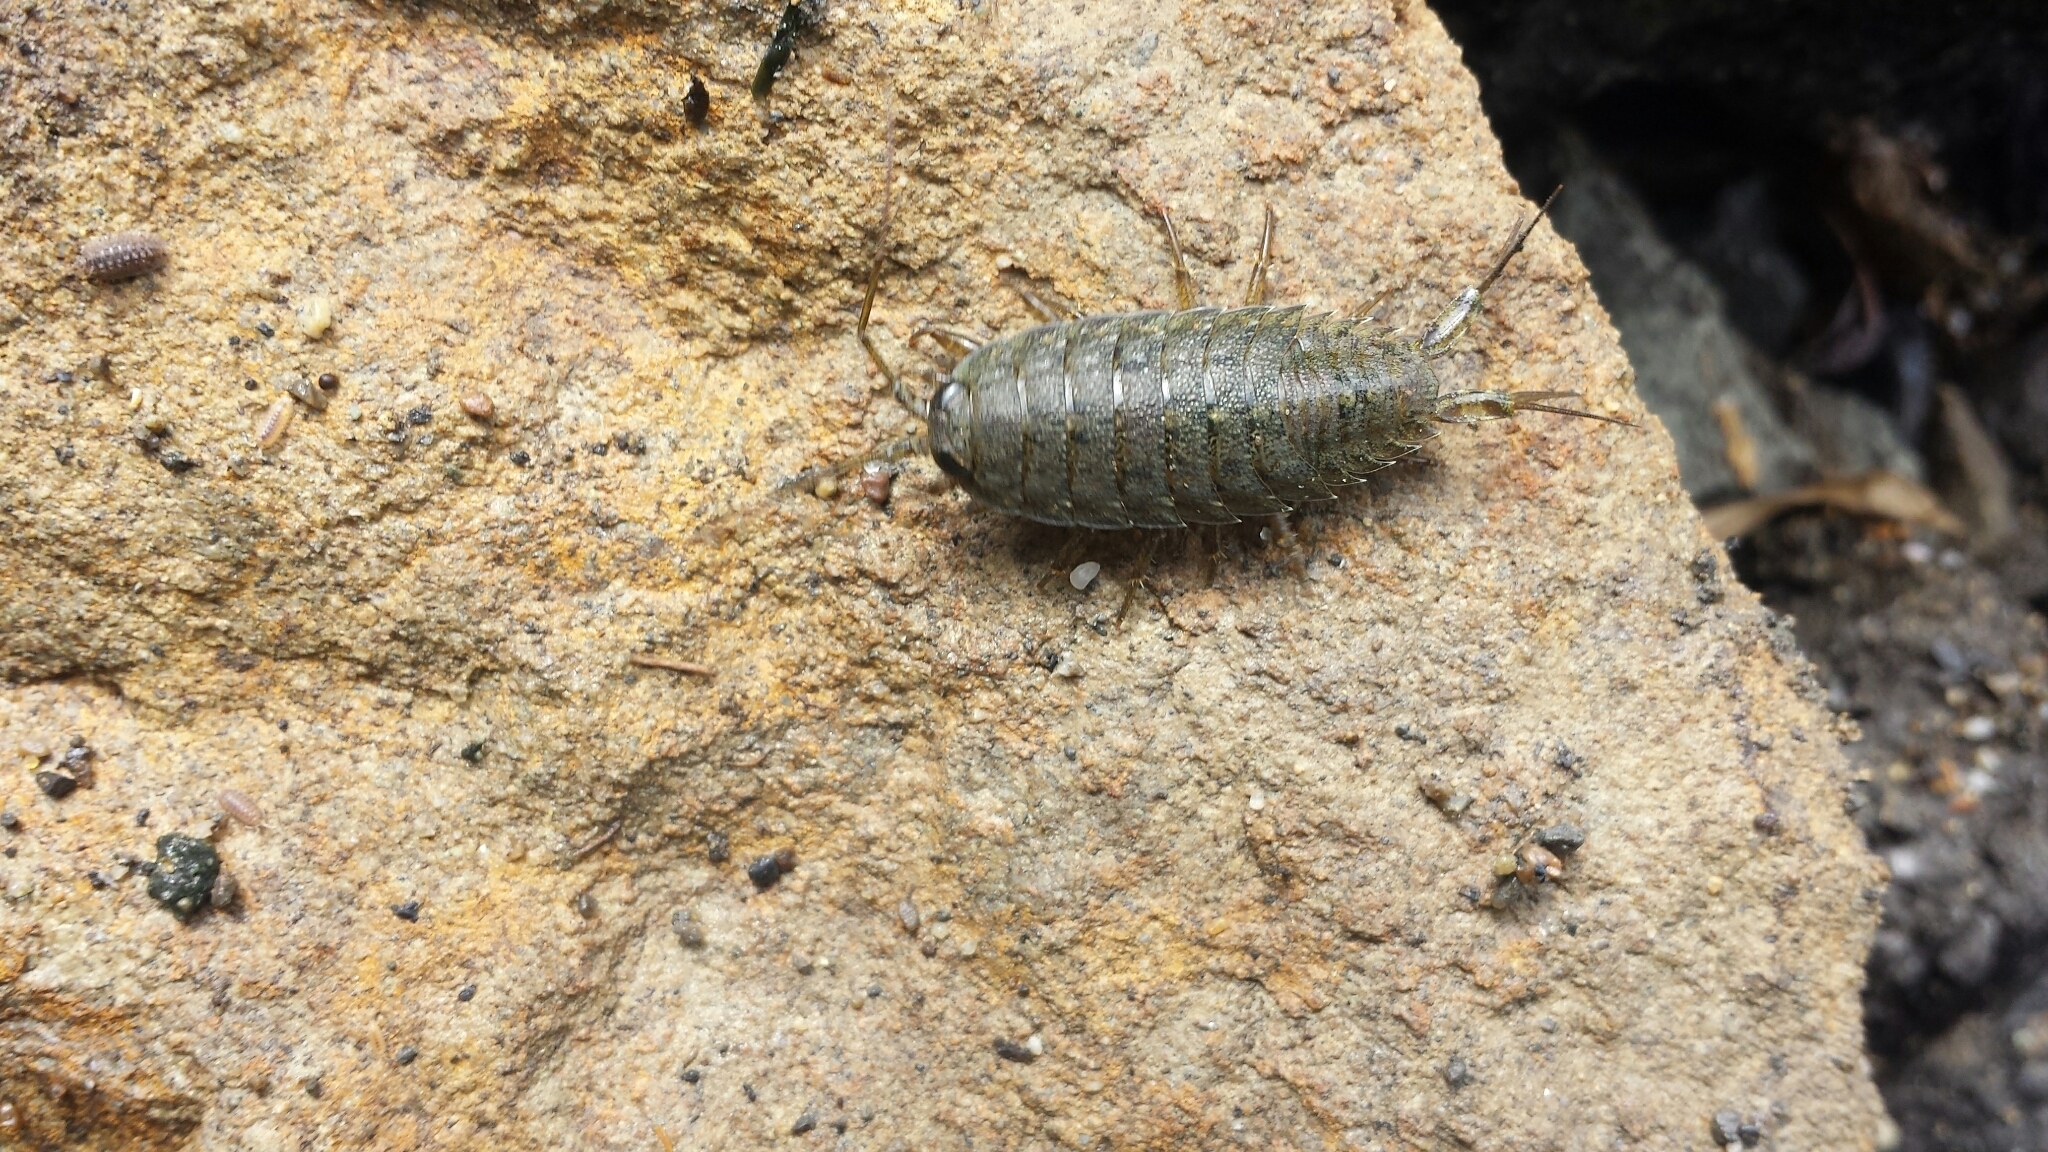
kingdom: Animalia
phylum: Arthropoda
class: Malacostraca
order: Isopoda
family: Ligiidae
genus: Ligia
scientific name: Ligia occidentalis
